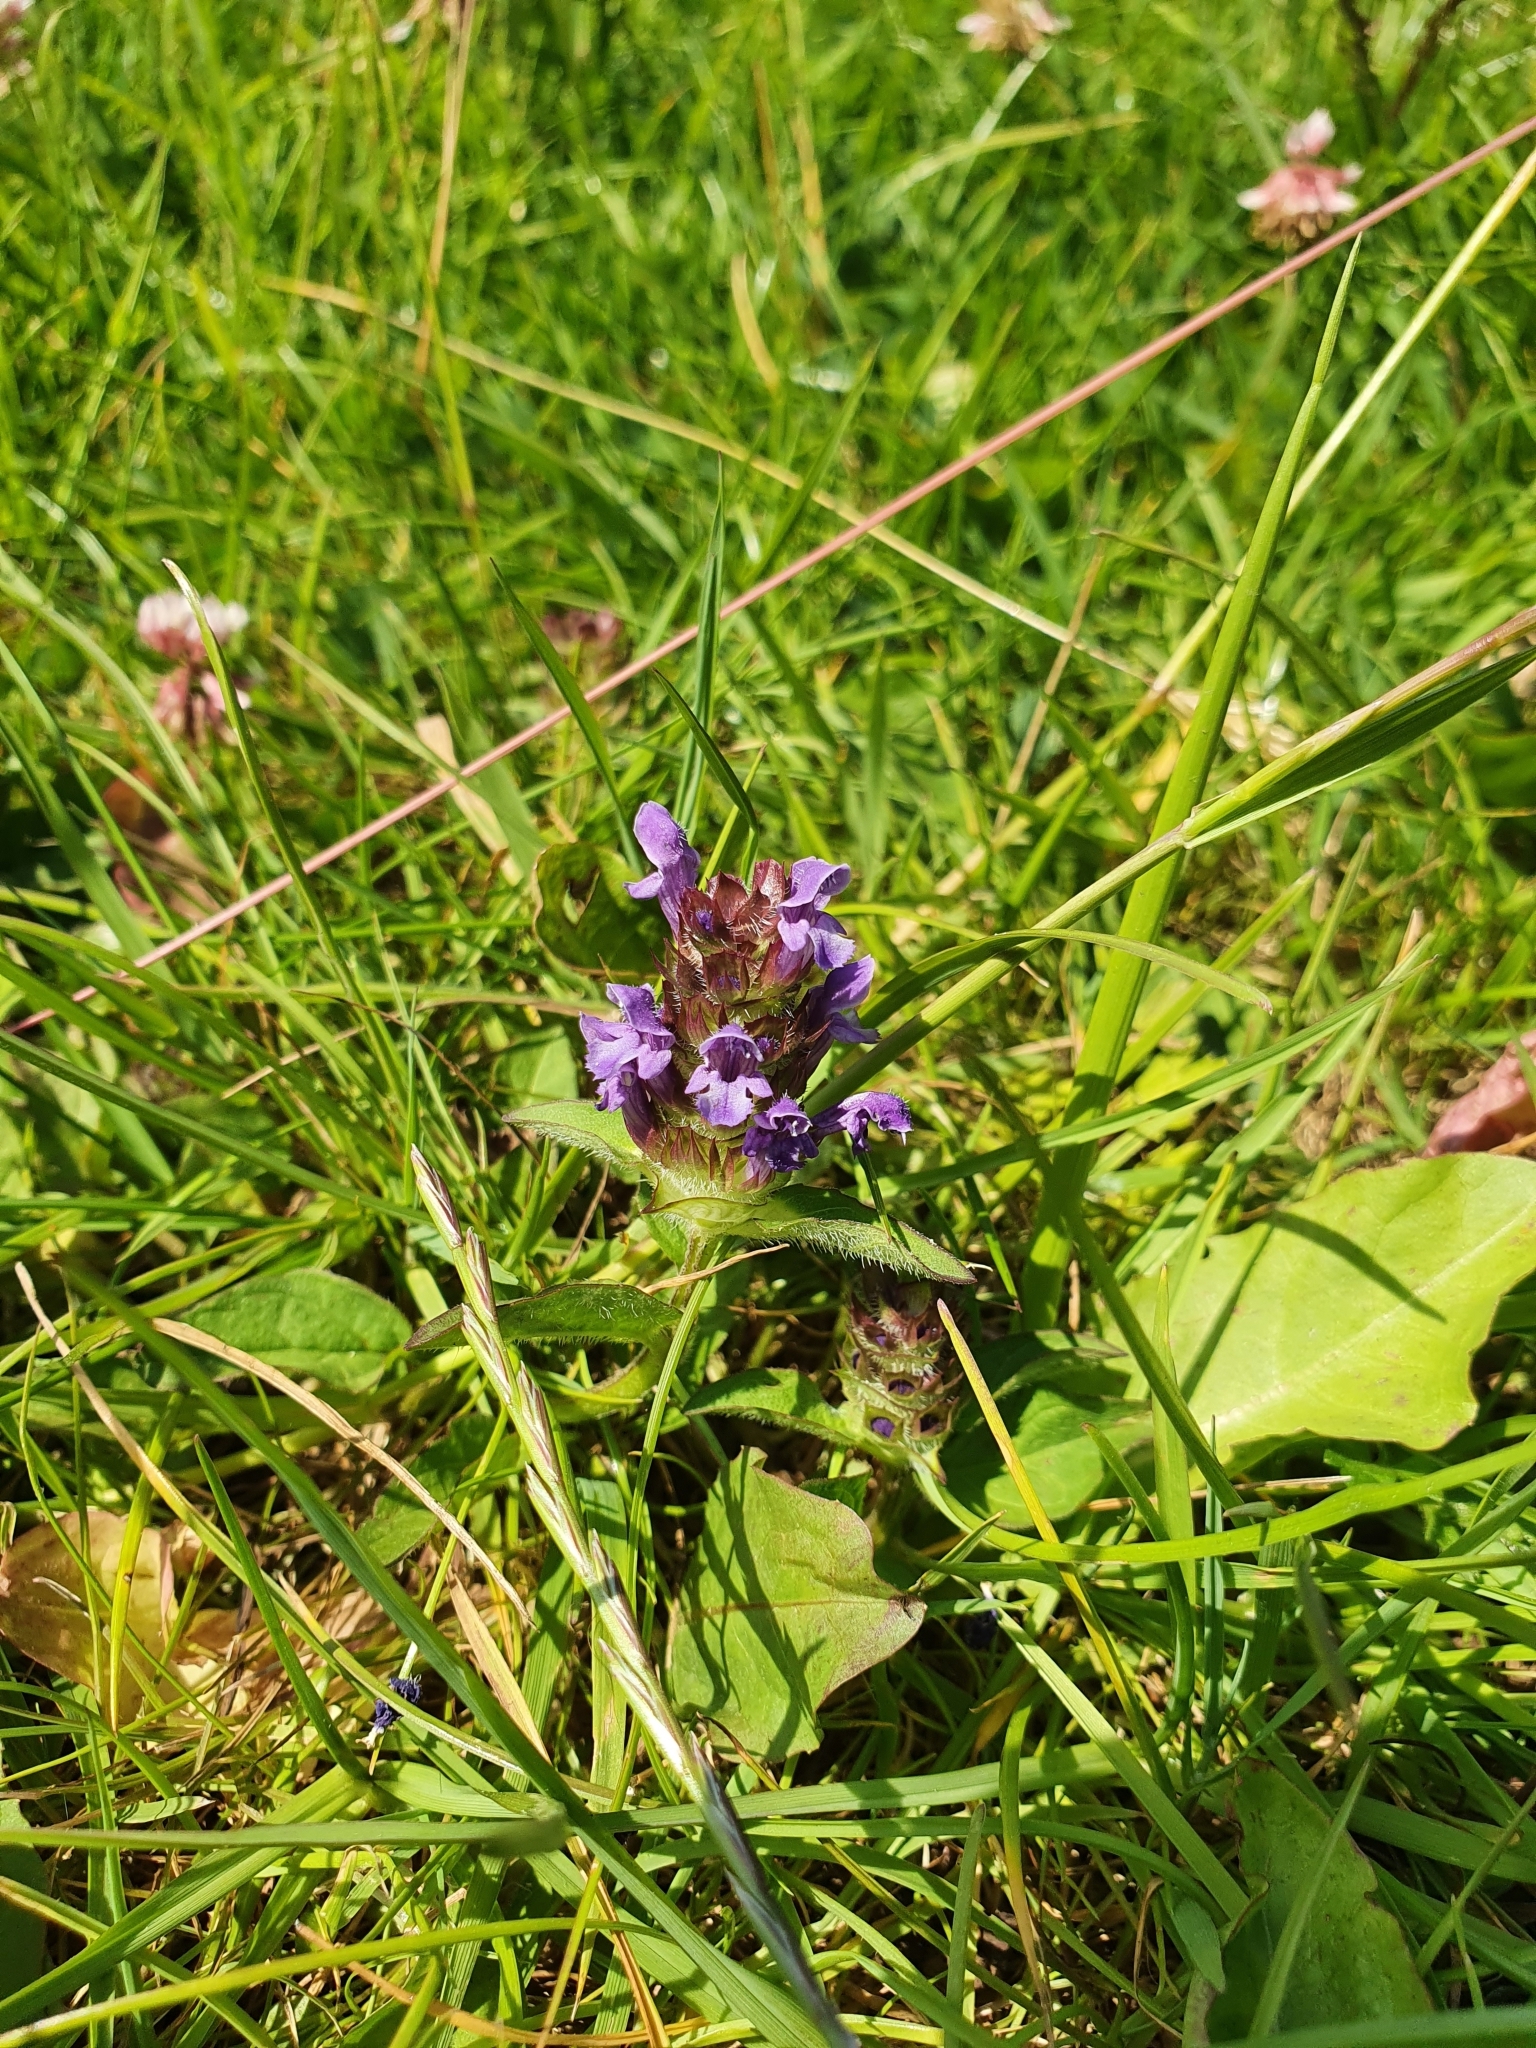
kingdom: Plantae
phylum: Tracheophyta
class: Magnoliopsida
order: Lamiales
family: Lamiaceae
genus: Prunella
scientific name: Prunella vulgaris
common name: Heal-all
